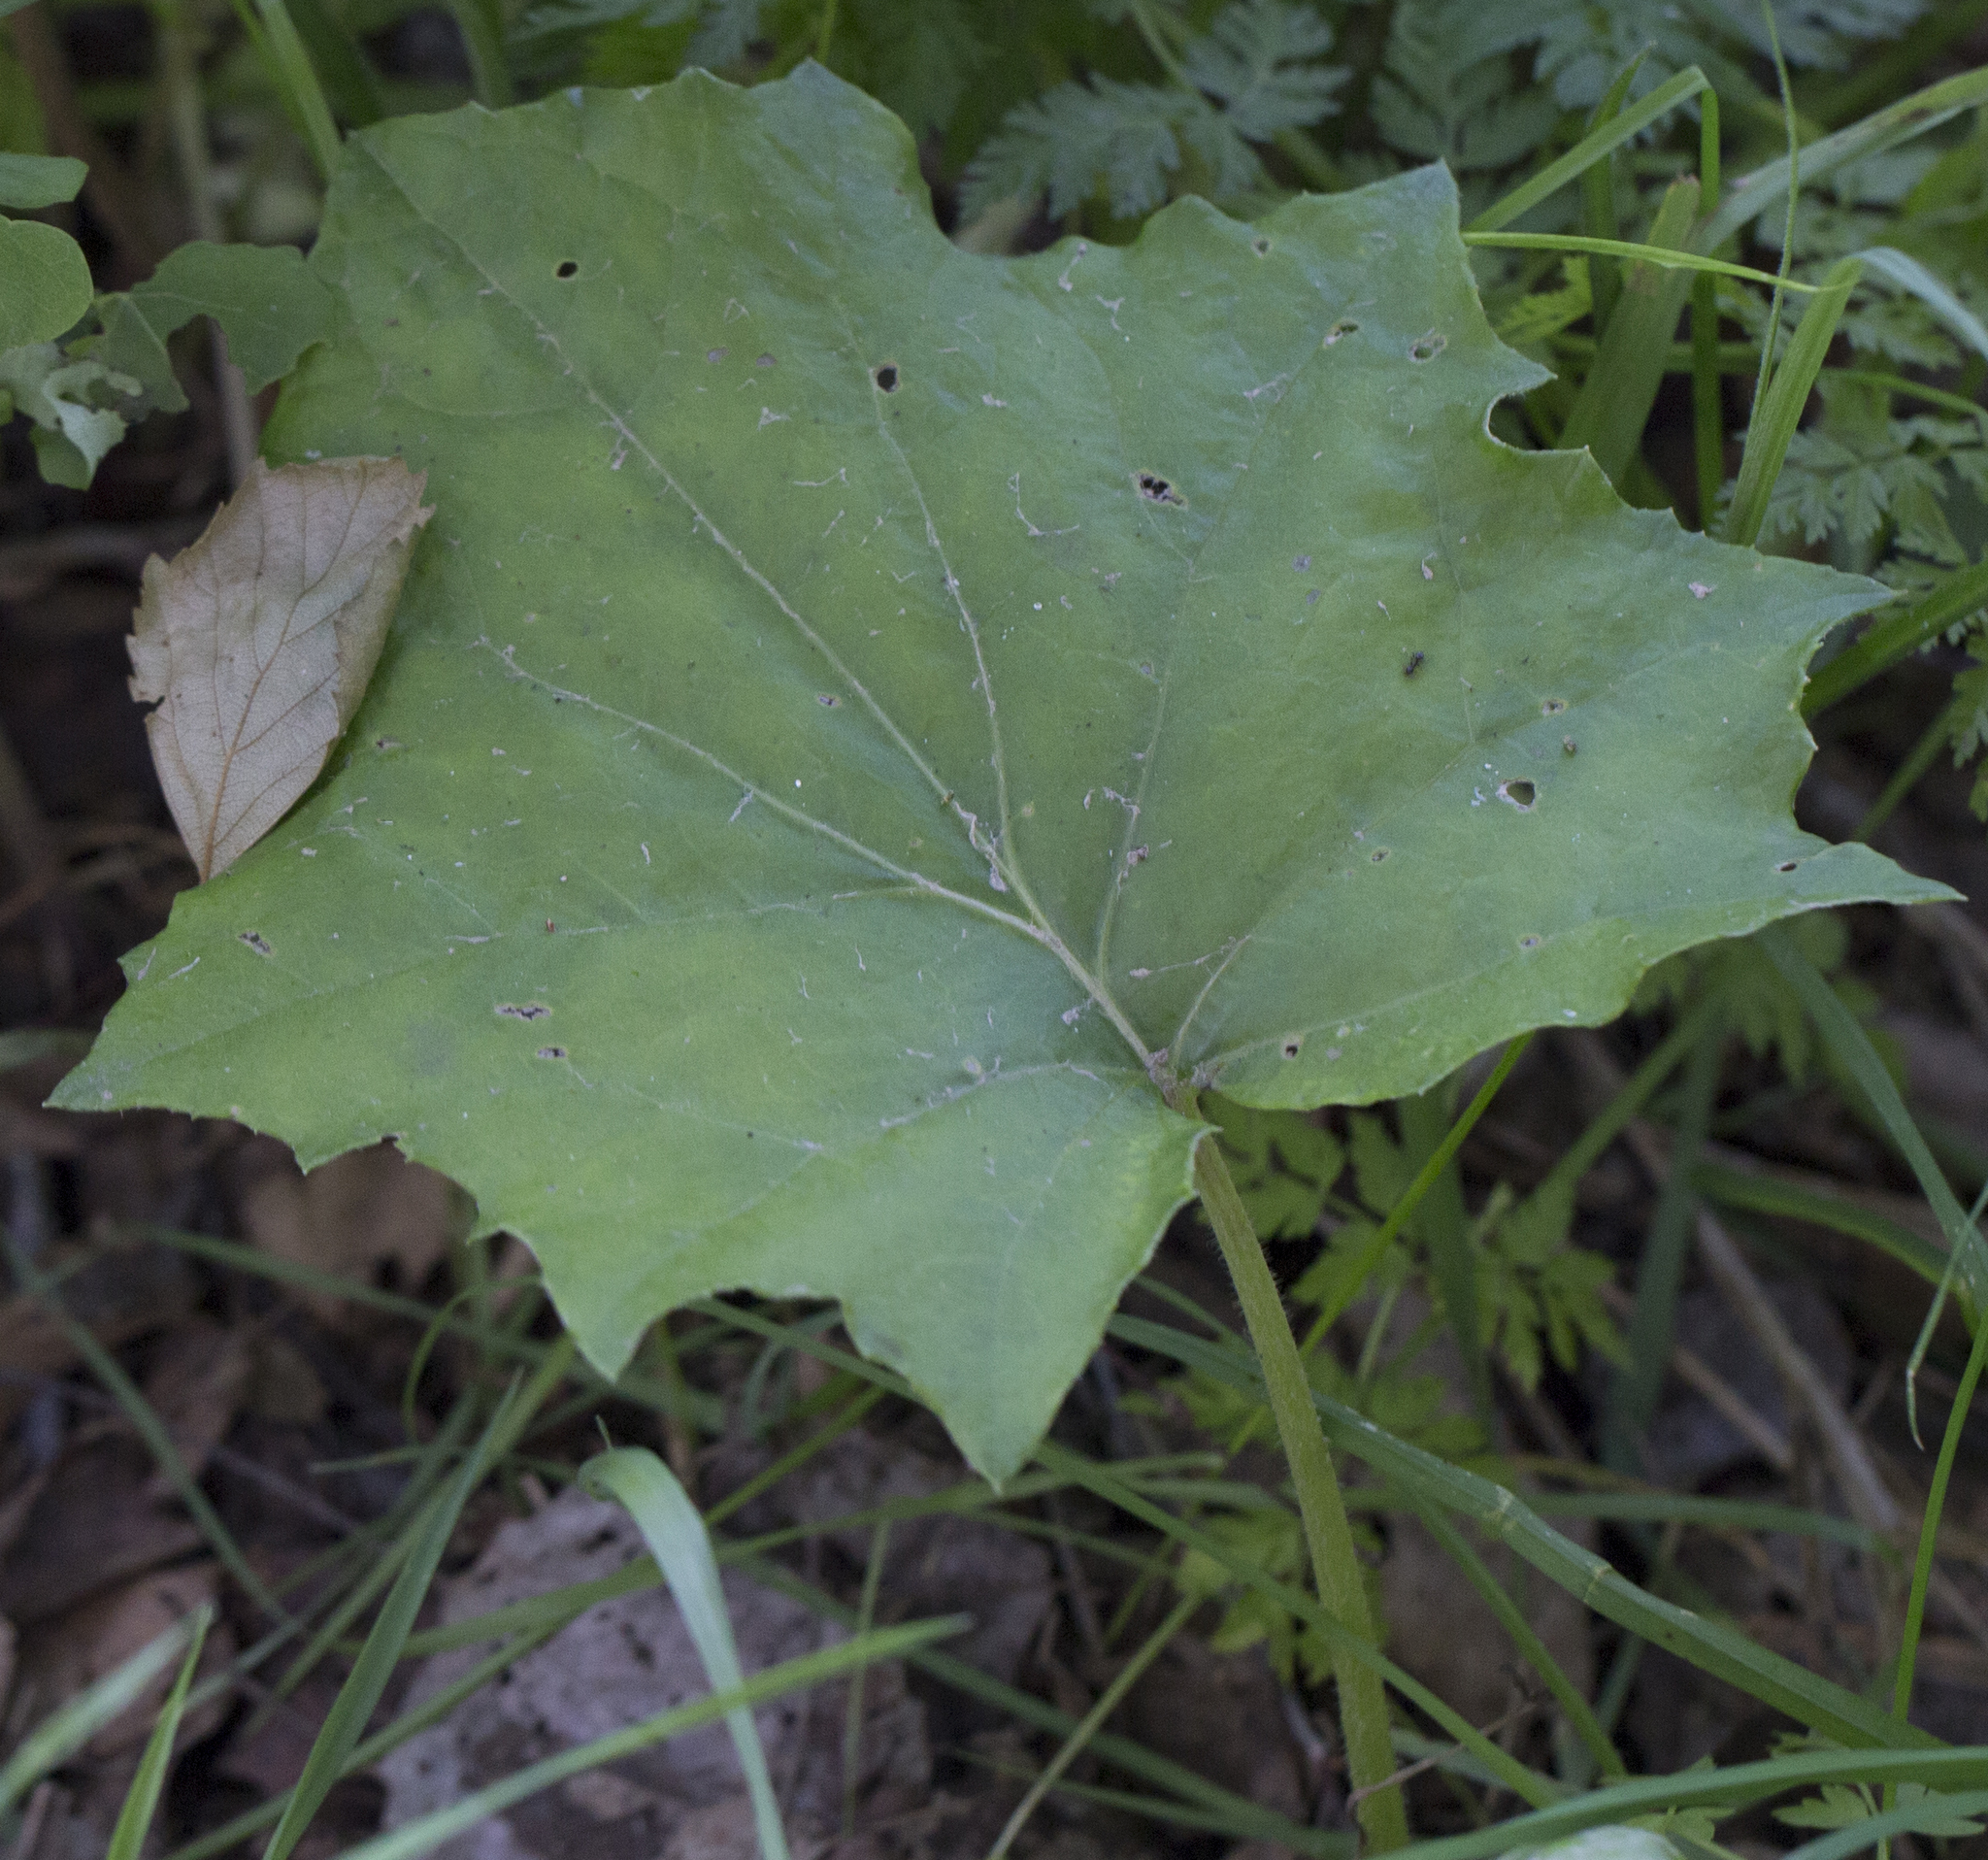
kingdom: Plantae
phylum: Tracheophyta
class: Magnoliopsida
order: Asterales
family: Asteraceae
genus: Tussilago
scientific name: Tussilago farfara
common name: Coltsfoot
